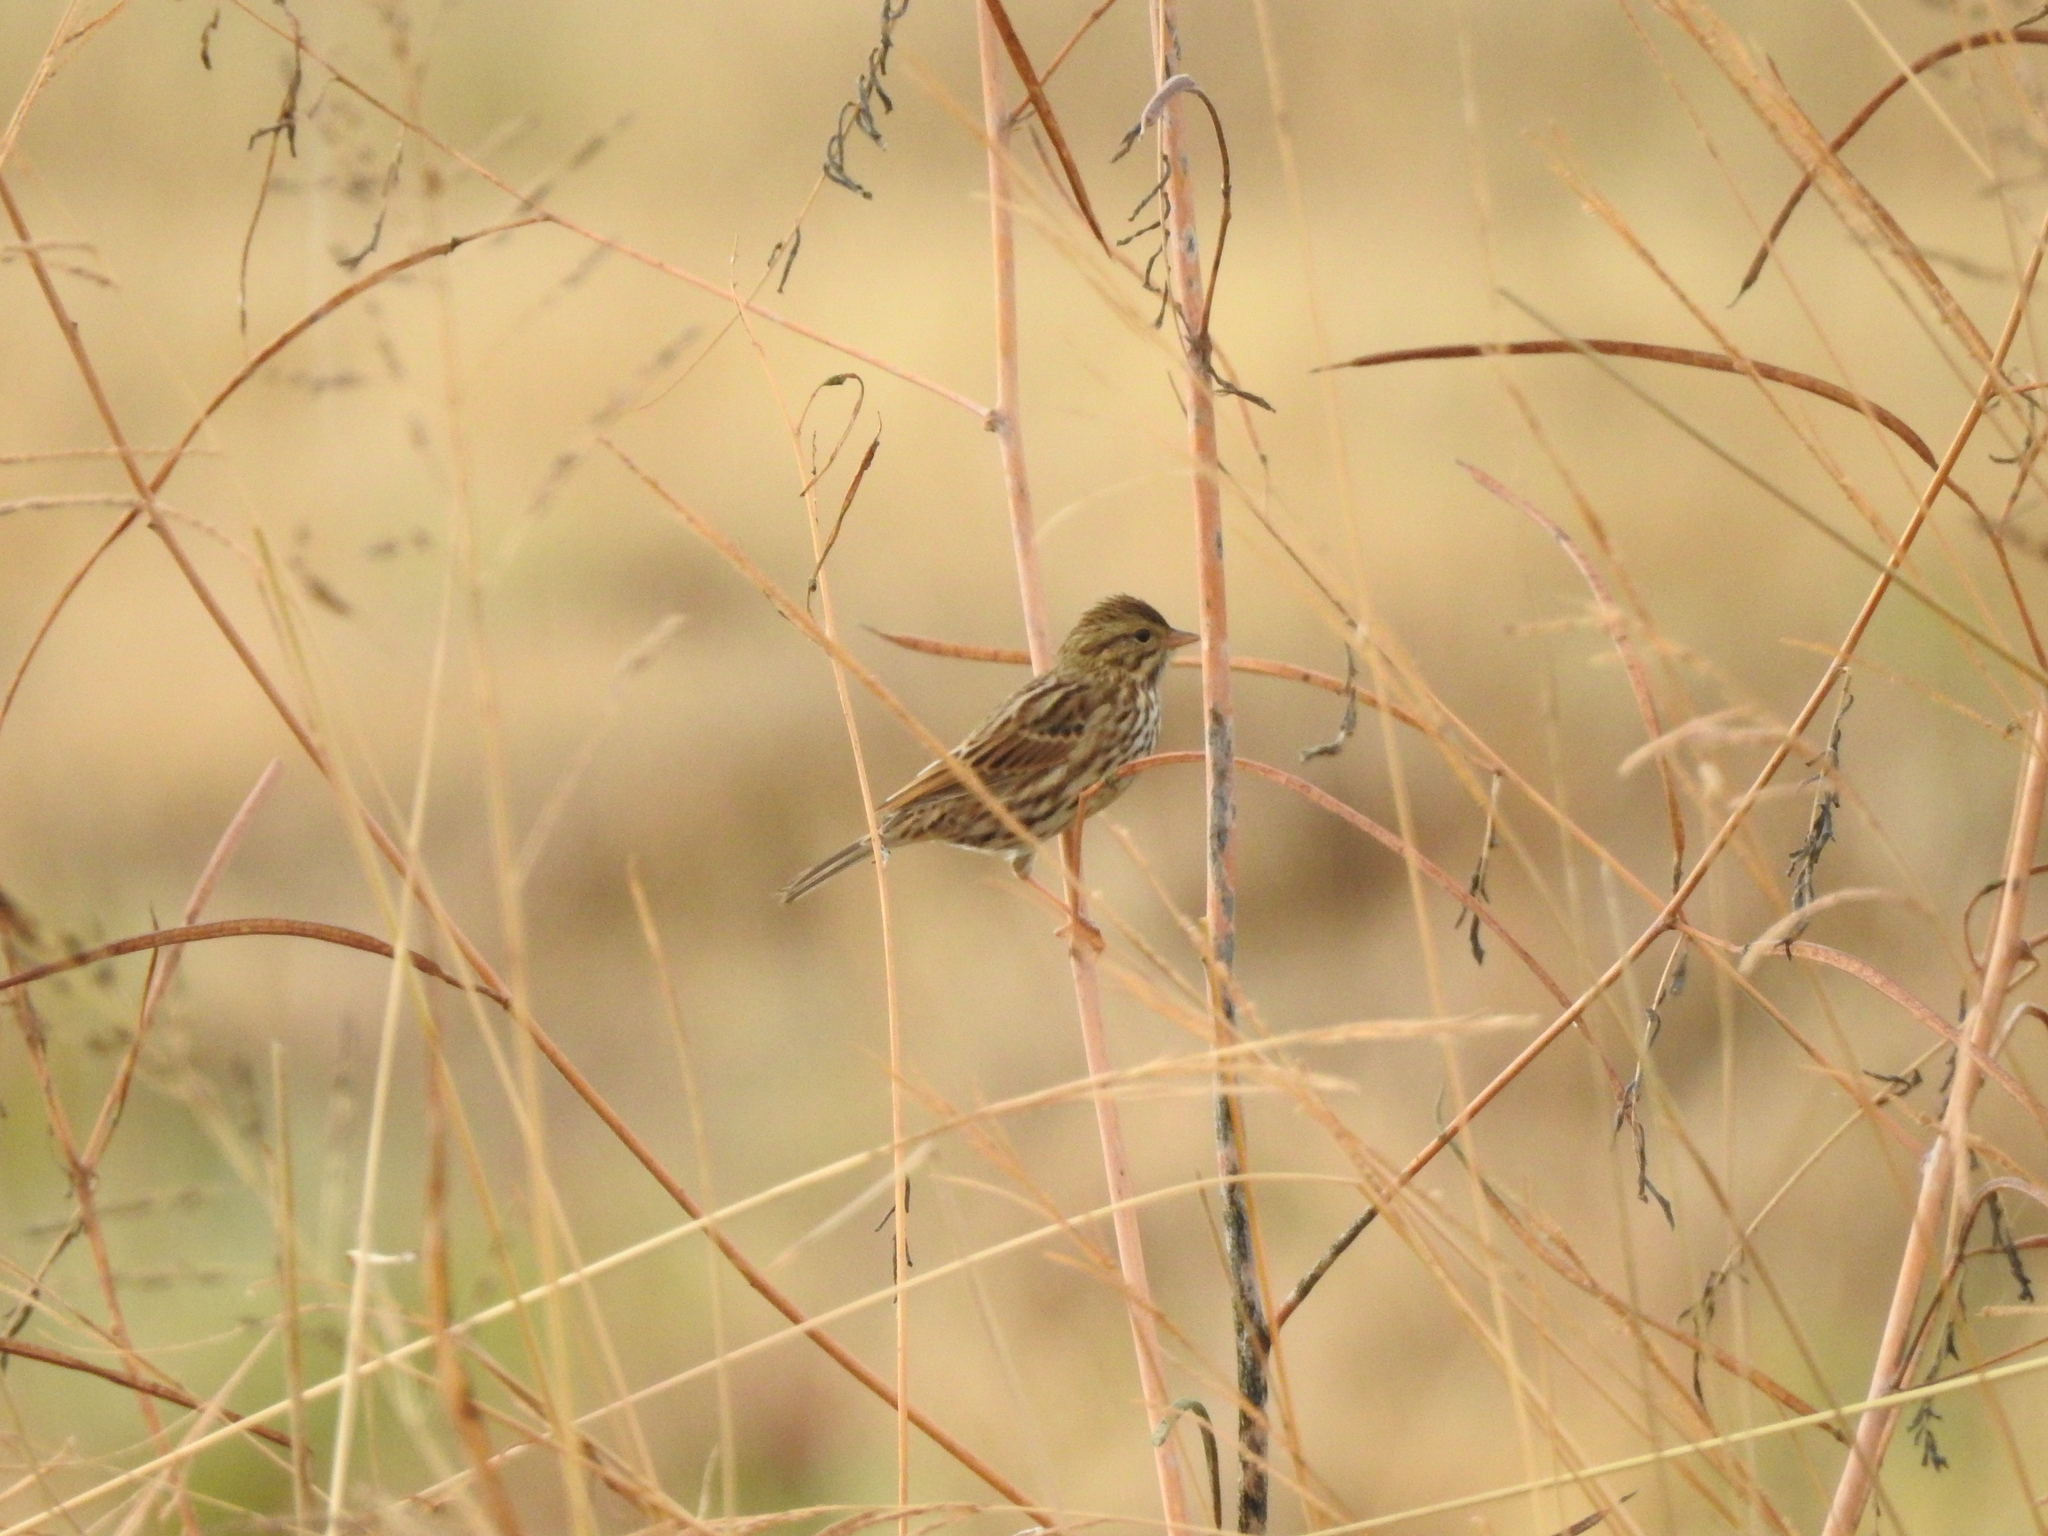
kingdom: Animalia
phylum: Chordata
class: Aves
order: Passeriformes
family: Passerellidae
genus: Passerculus
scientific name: Passerculus sandwichensis
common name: Savannah sparrow
